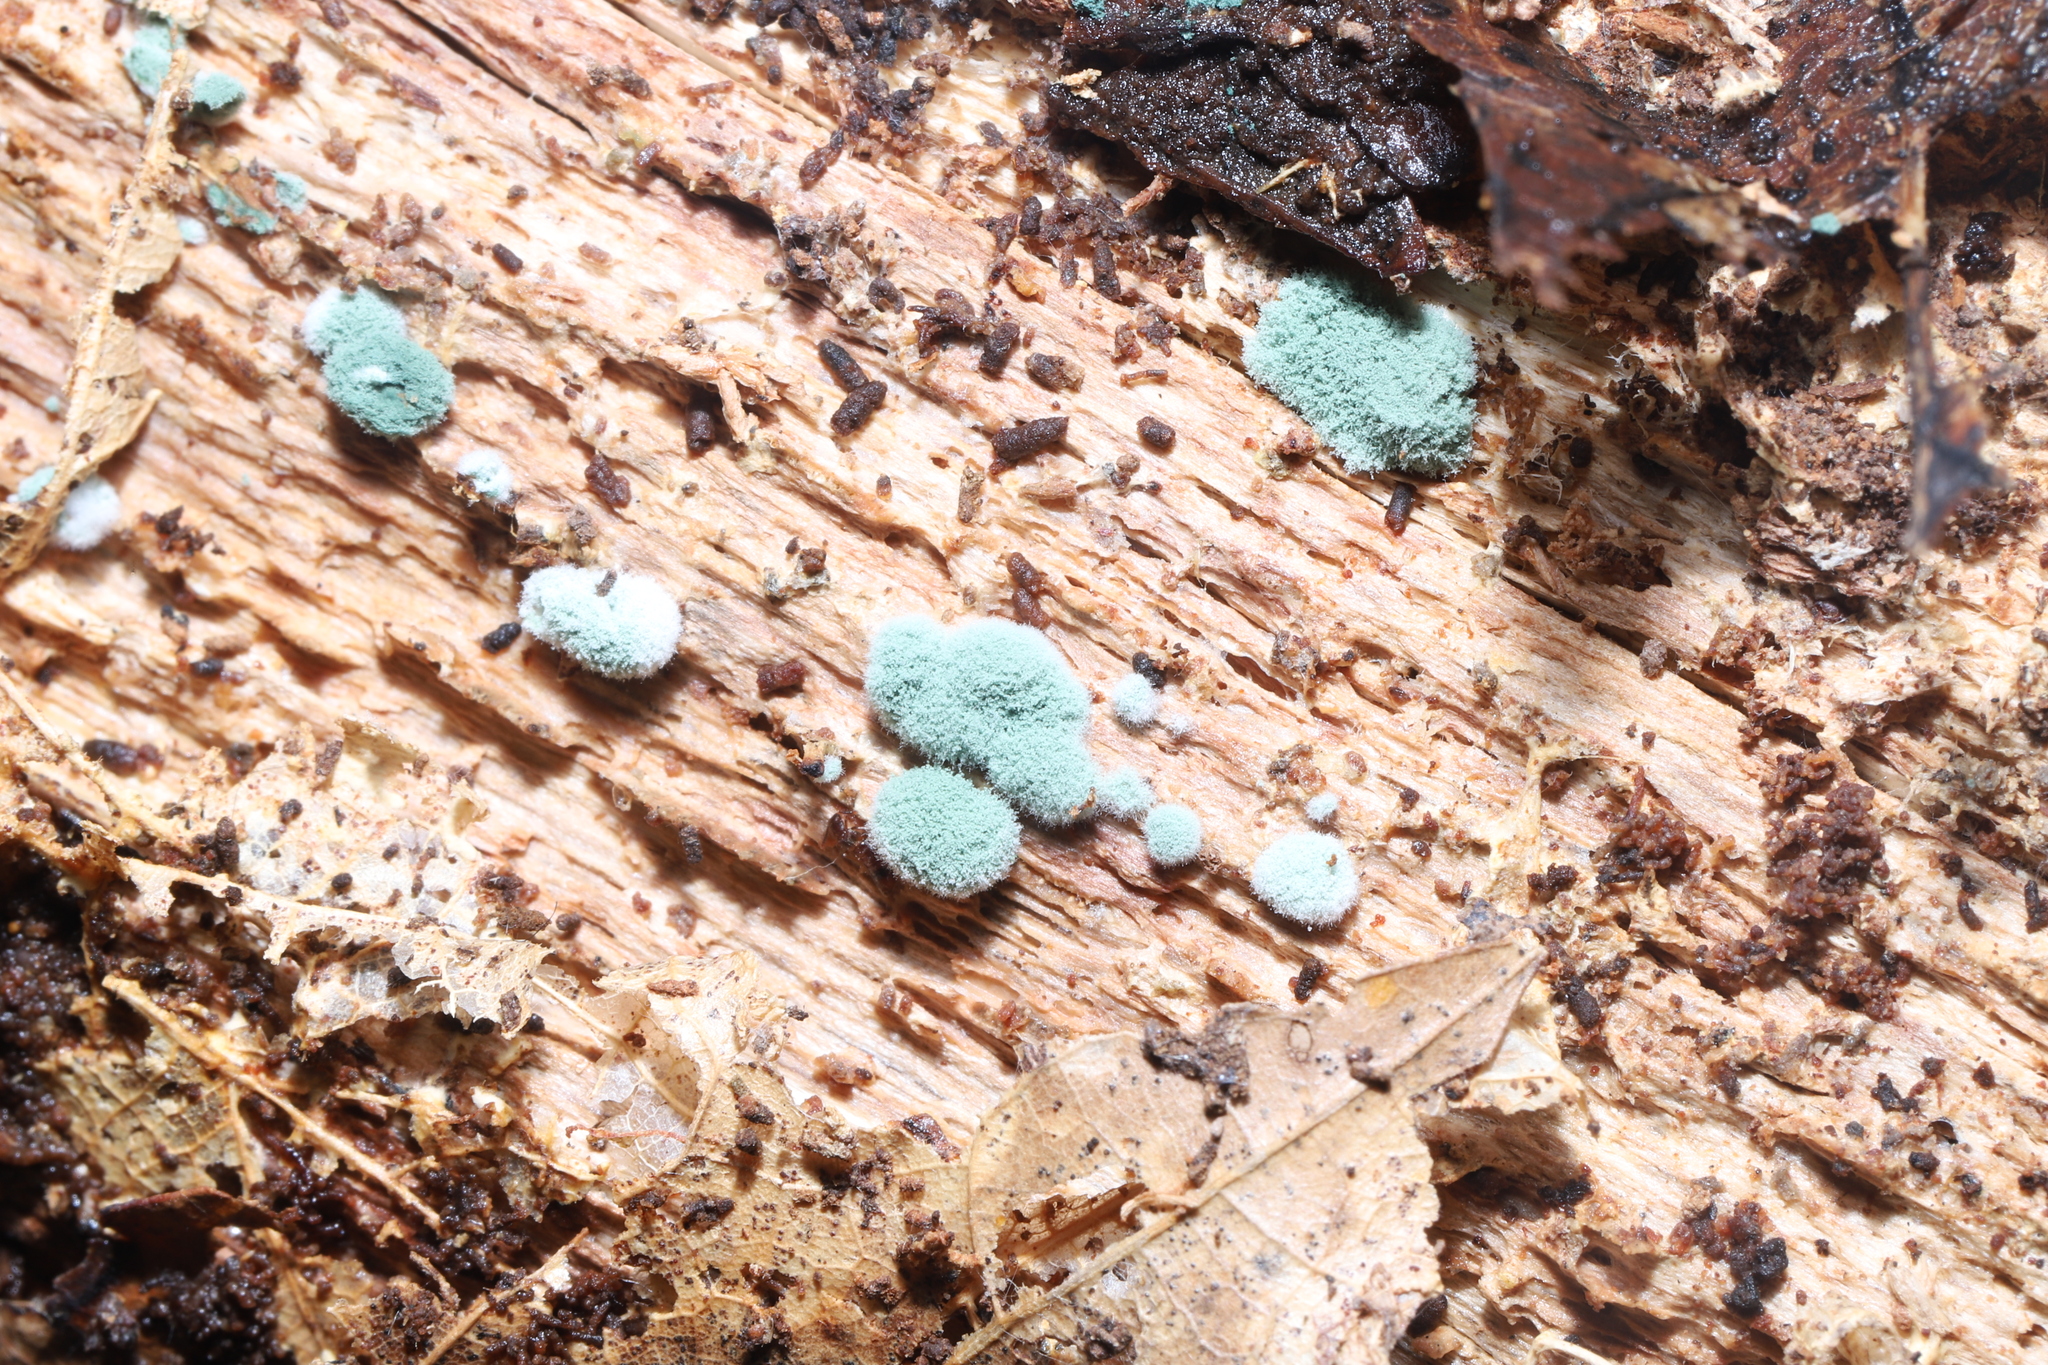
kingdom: Fungi
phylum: Ascomycota
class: Sordariomycetes
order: Hypocreales
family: Hypocreaceae
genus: Trichoderma
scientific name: Trichoderma viride
